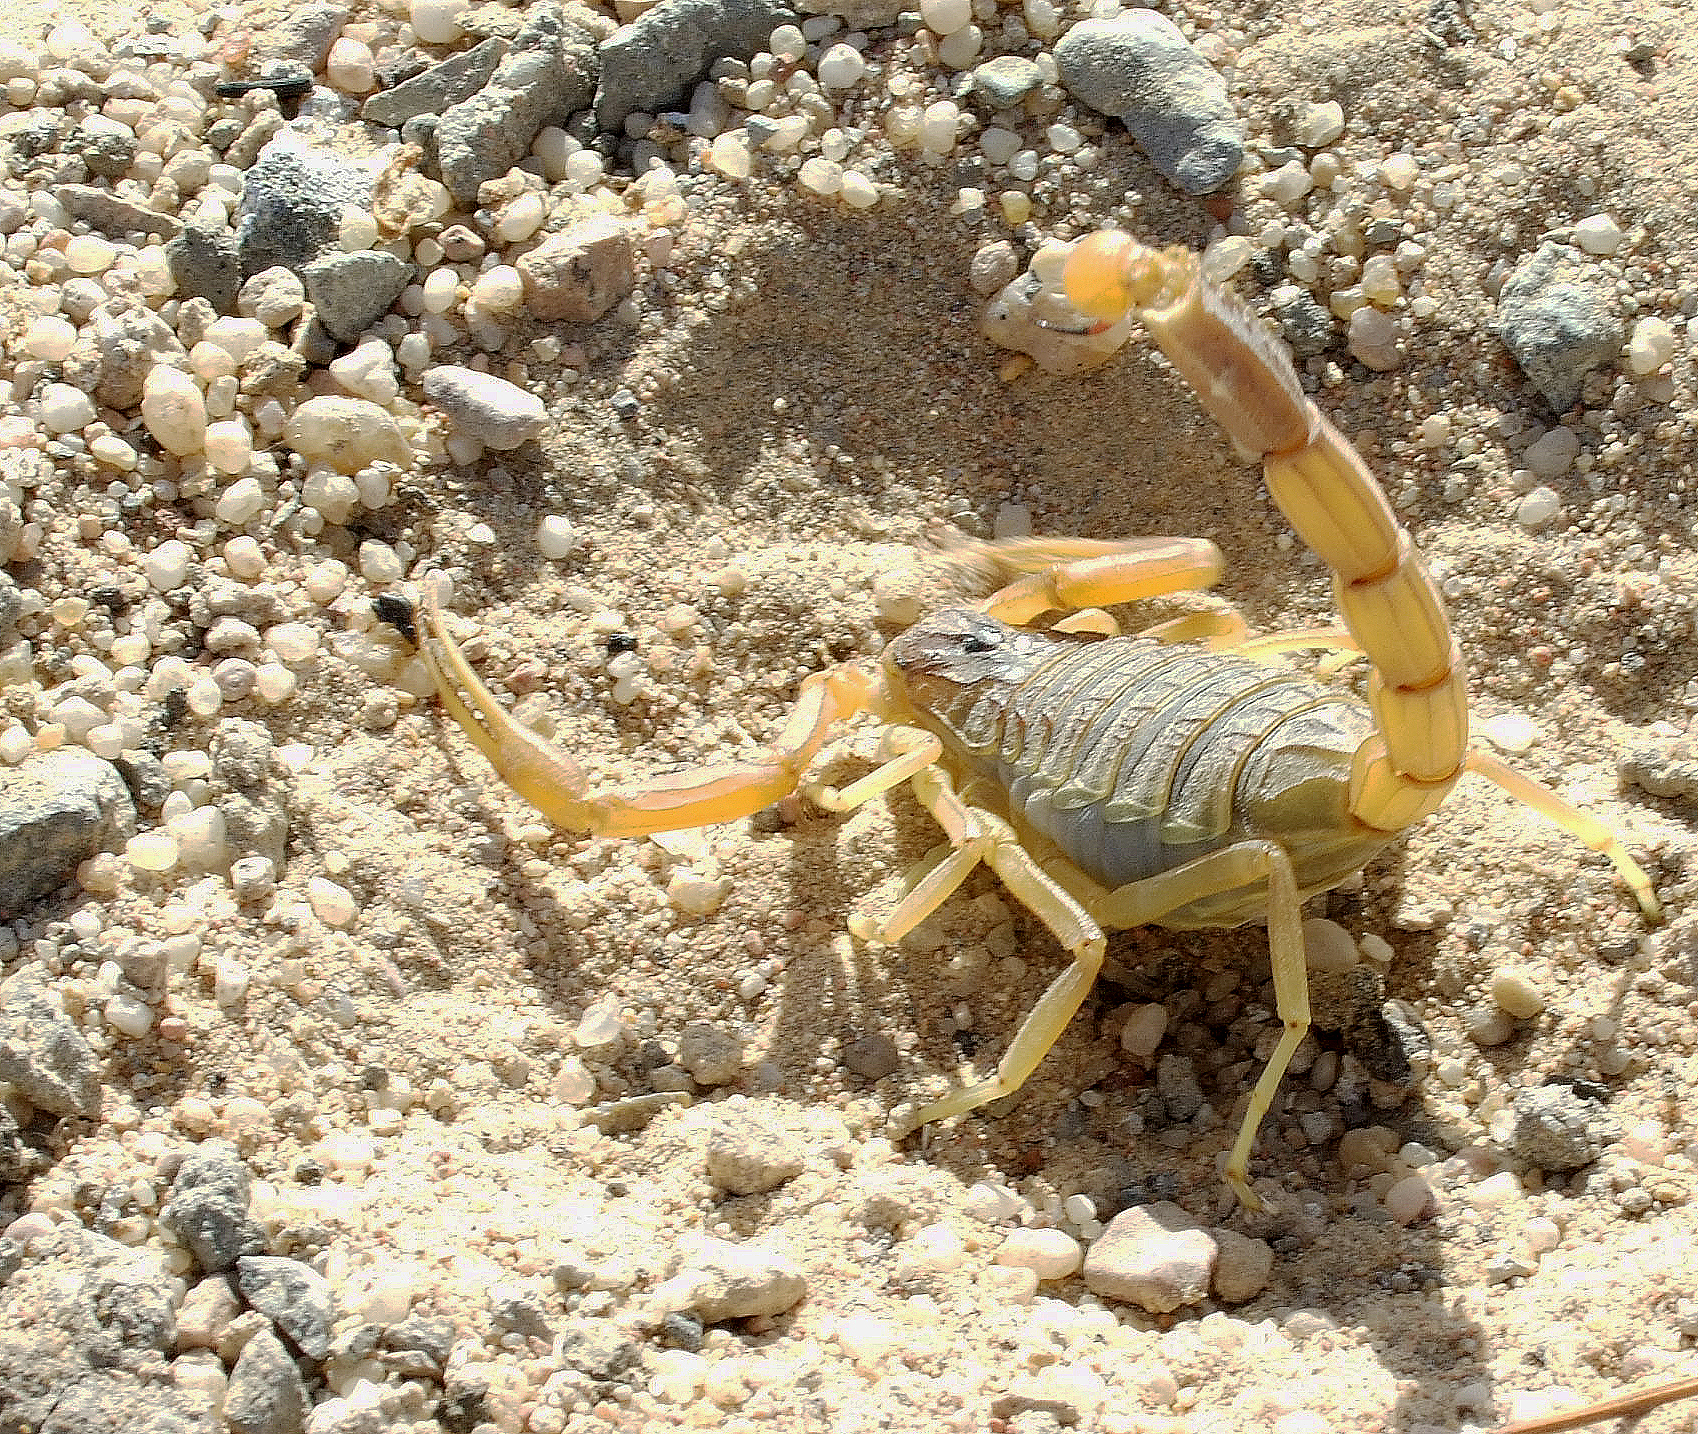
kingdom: Animalia
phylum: Arthropoda
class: Arachnida
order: Scorpiones
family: Buthidae
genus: Leiurus
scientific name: Leiurus quinquestriatus
